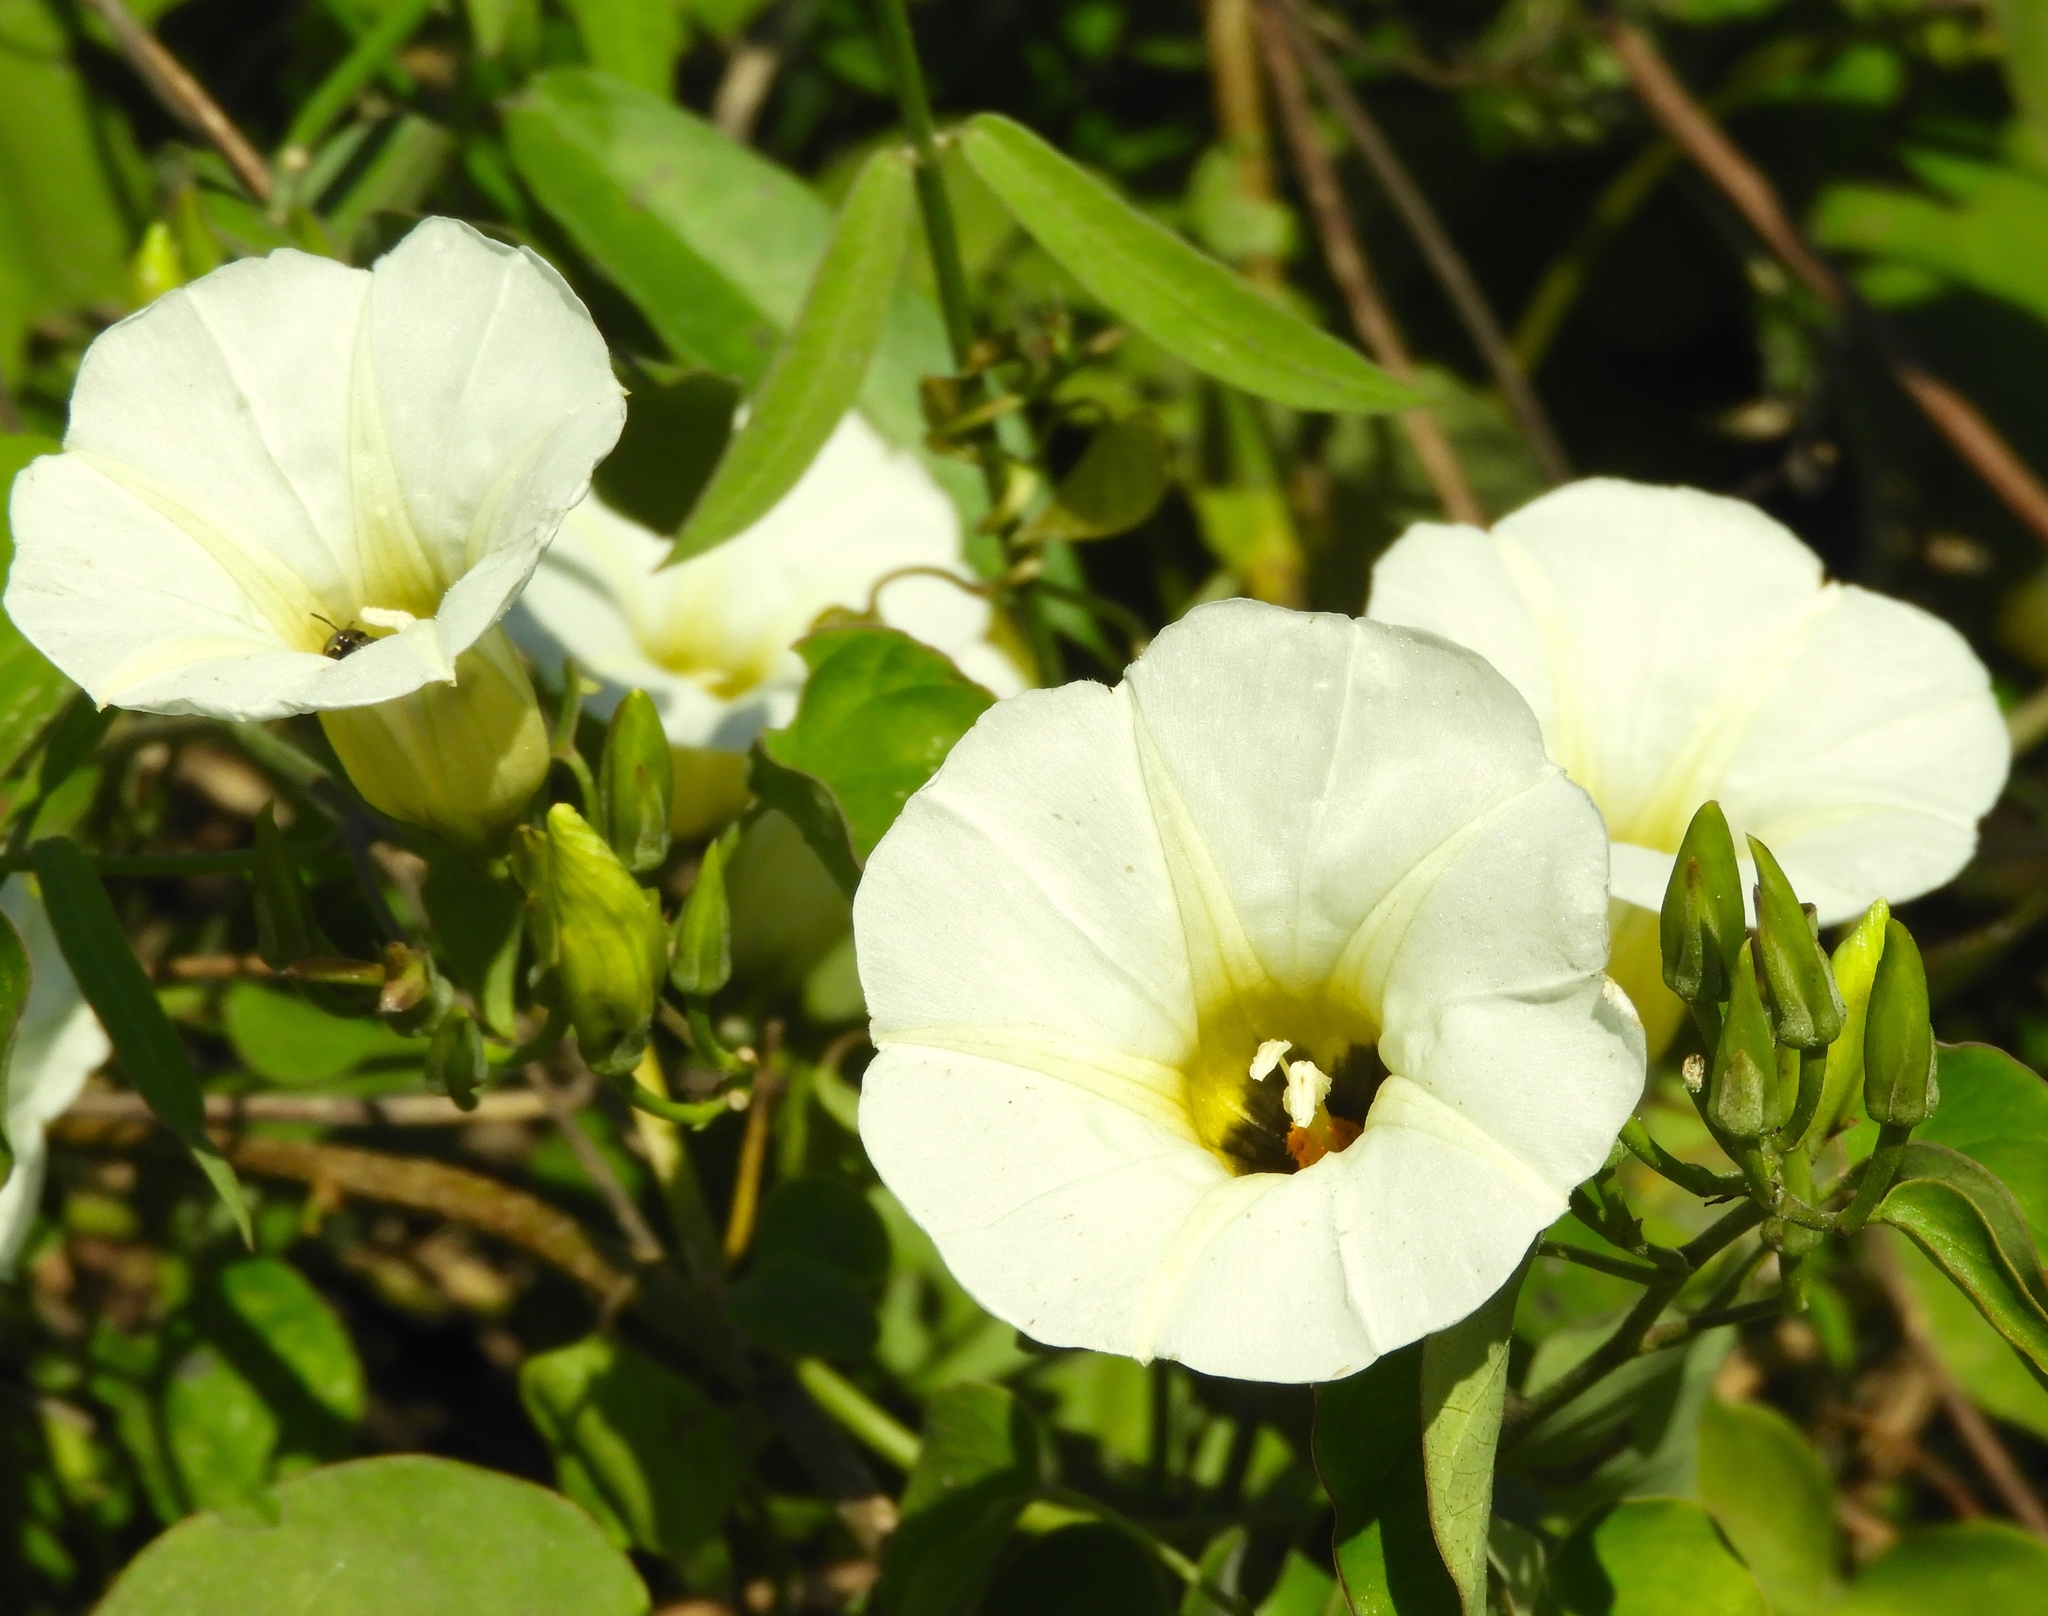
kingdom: Plantae
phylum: Tracheophyta
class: Magnoliopsida
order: Solanales
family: Convolvulaceae
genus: Ipomoea
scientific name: Ipomoea corymbosa
